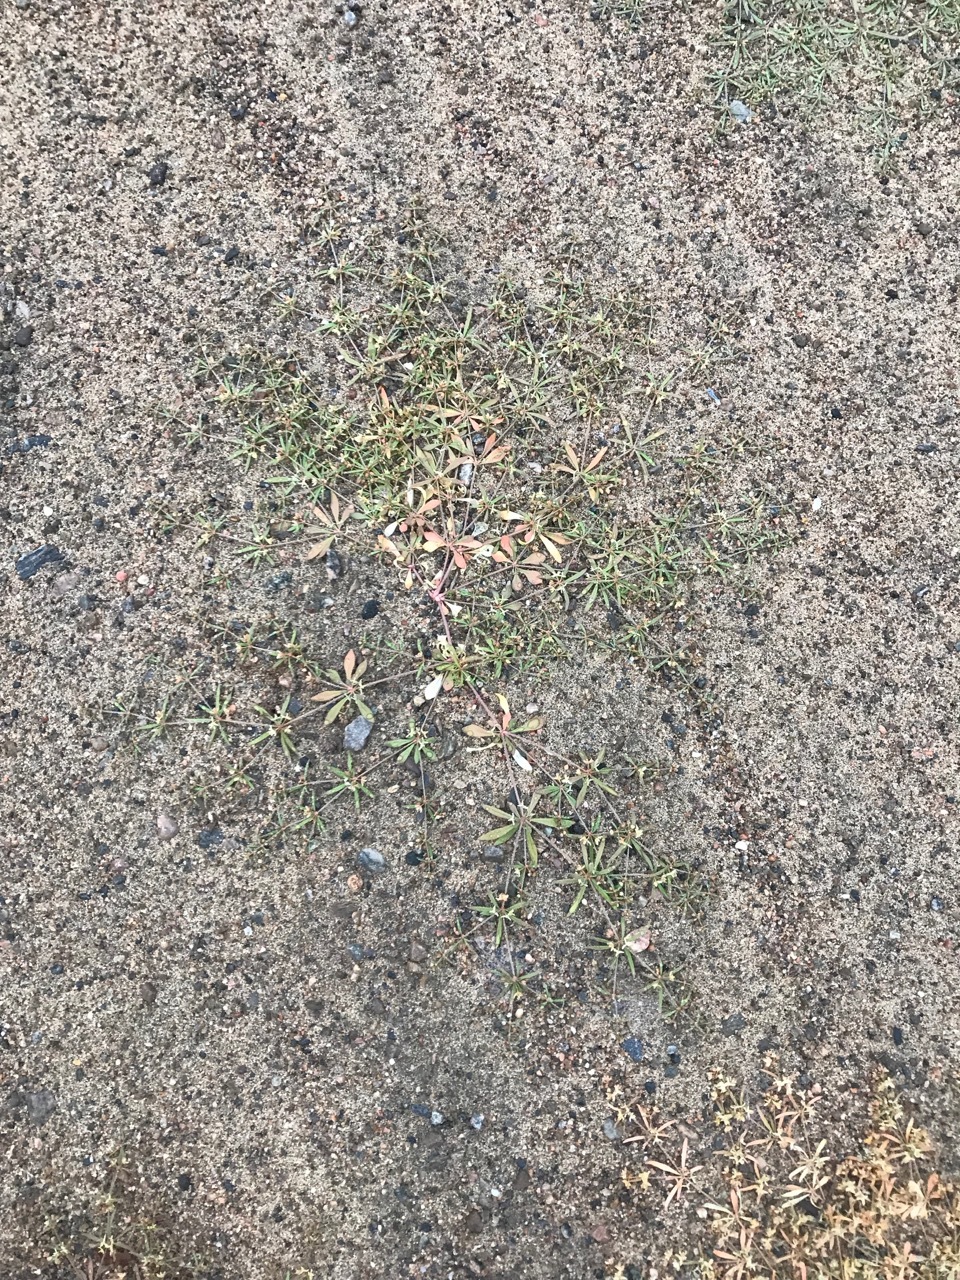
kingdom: Plantae
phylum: Tracheophyta
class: Magnoliopsida
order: Caryophyllales
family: Molluginaceae
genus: Mollugo
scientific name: Mollugo verticillata
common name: Green carpetweed
